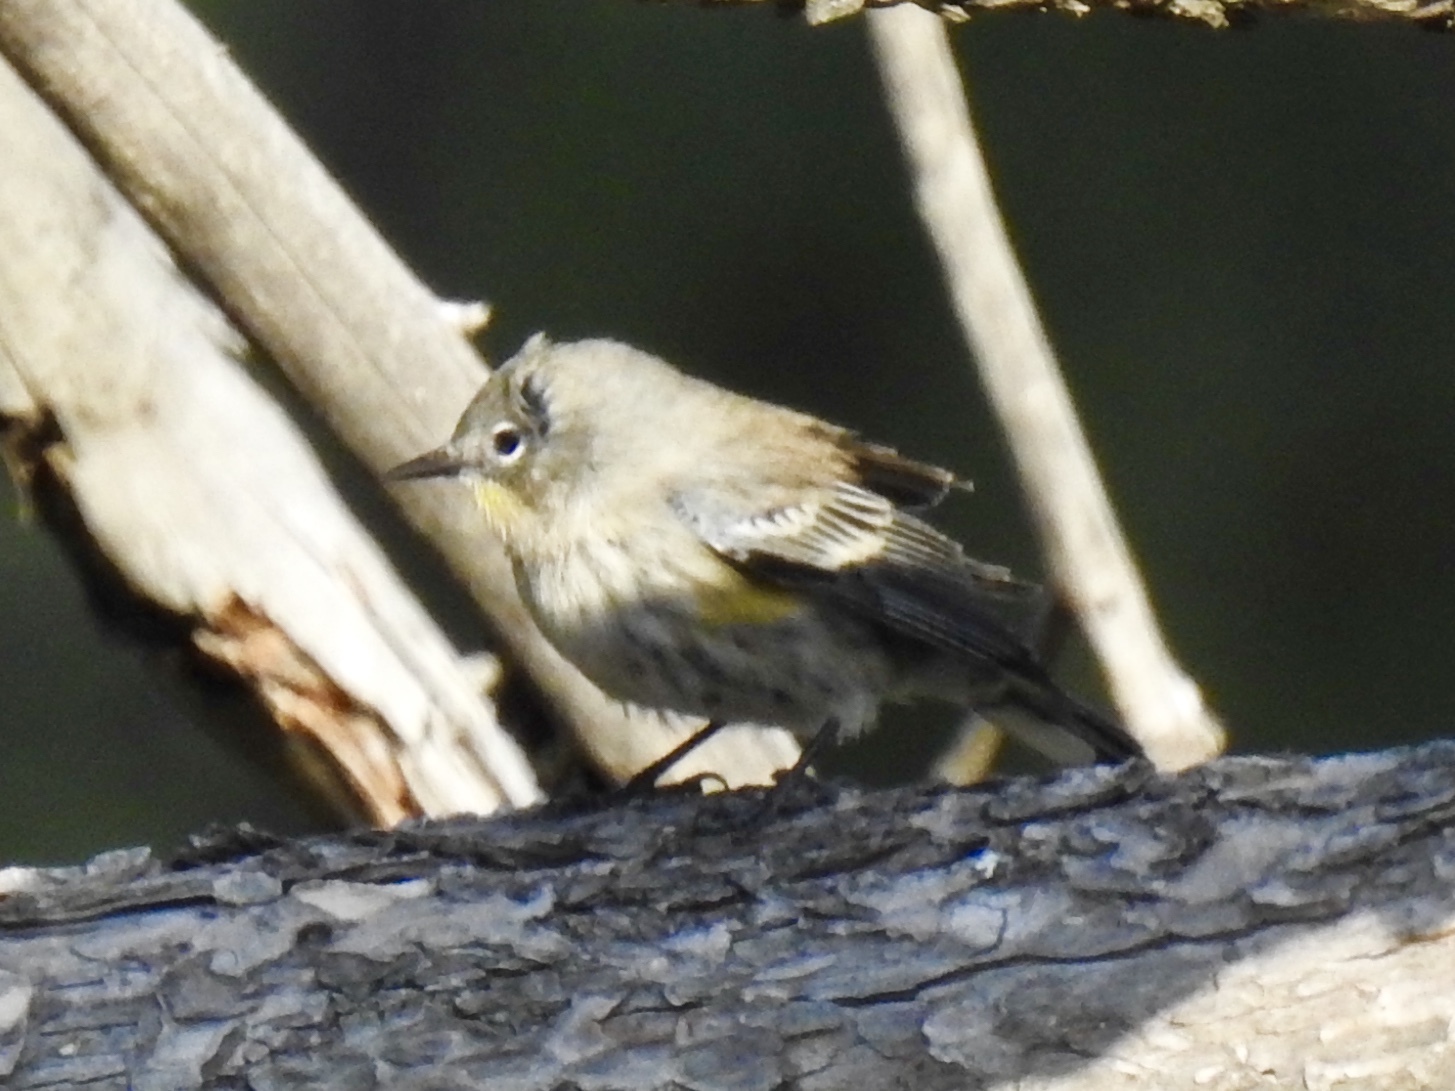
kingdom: Animalia
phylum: Chordata
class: Aves
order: Passeriformes
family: Parulidae
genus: Setophaga
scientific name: Setophaga coronata
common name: Myrtle warbler
